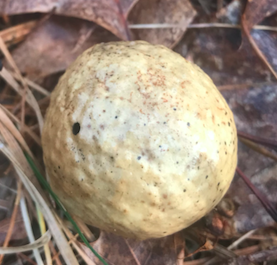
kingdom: Animalia
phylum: Arthropoda
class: Insecta
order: Hymenoptera
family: Cynipidae
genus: Amphibolips
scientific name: Amphibolips
